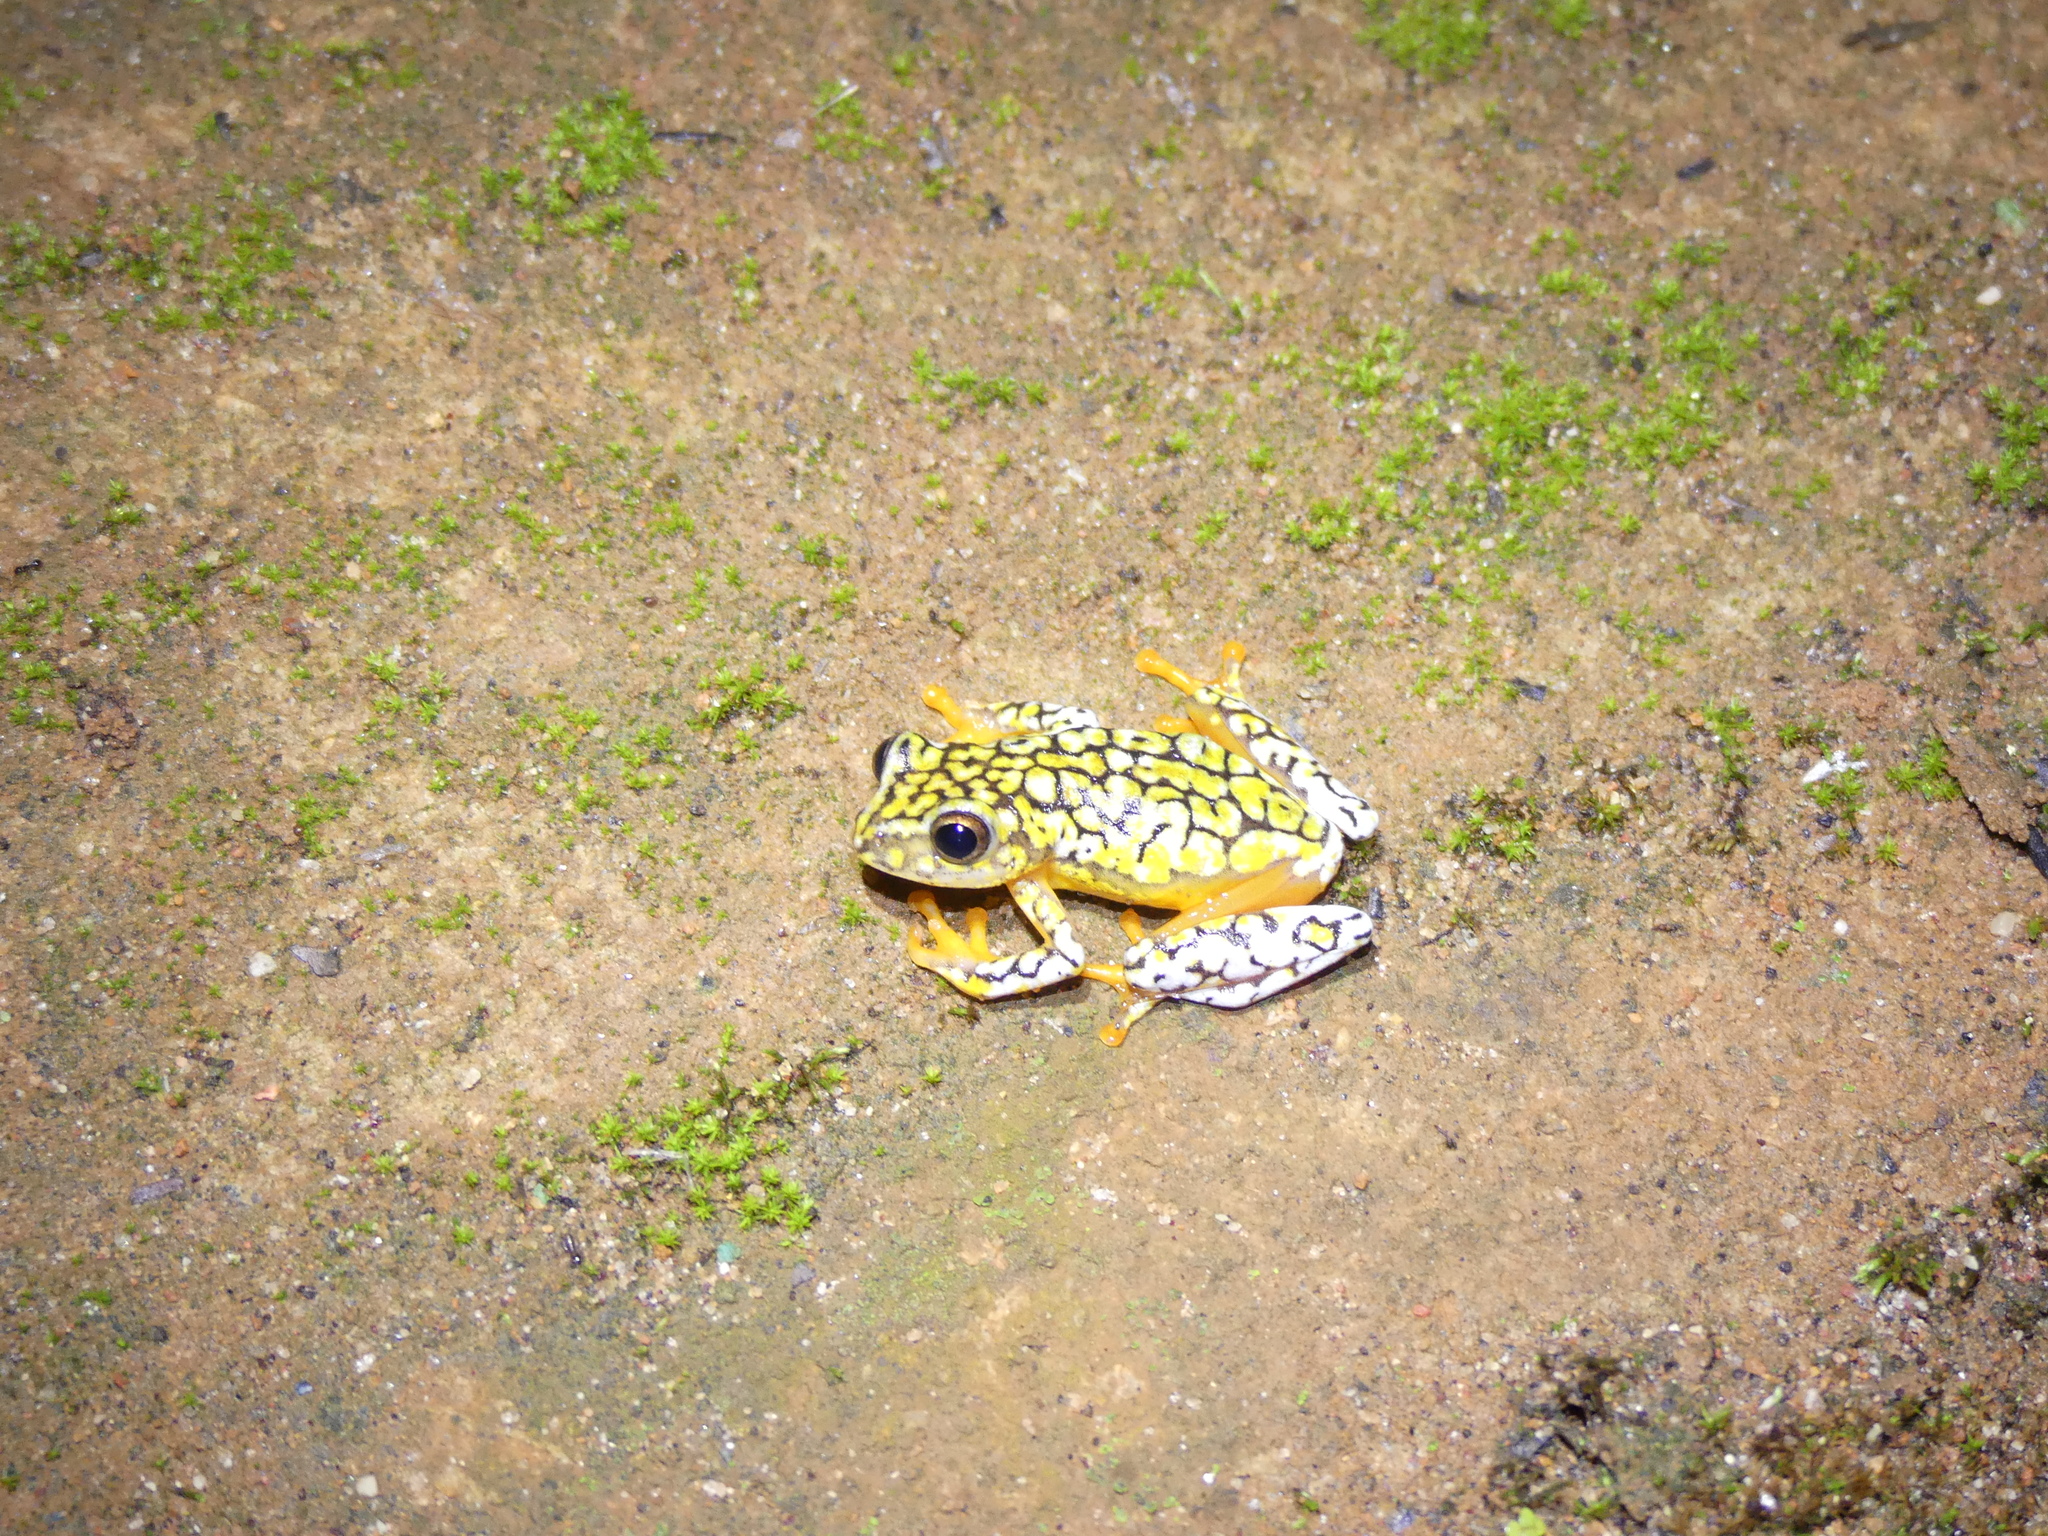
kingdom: Animalia
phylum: Chordata
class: Amphibia
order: Anura
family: Hyperoliidae
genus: Hyperolius
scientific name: Hyperolius substriatus
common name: Spotted reed frog
